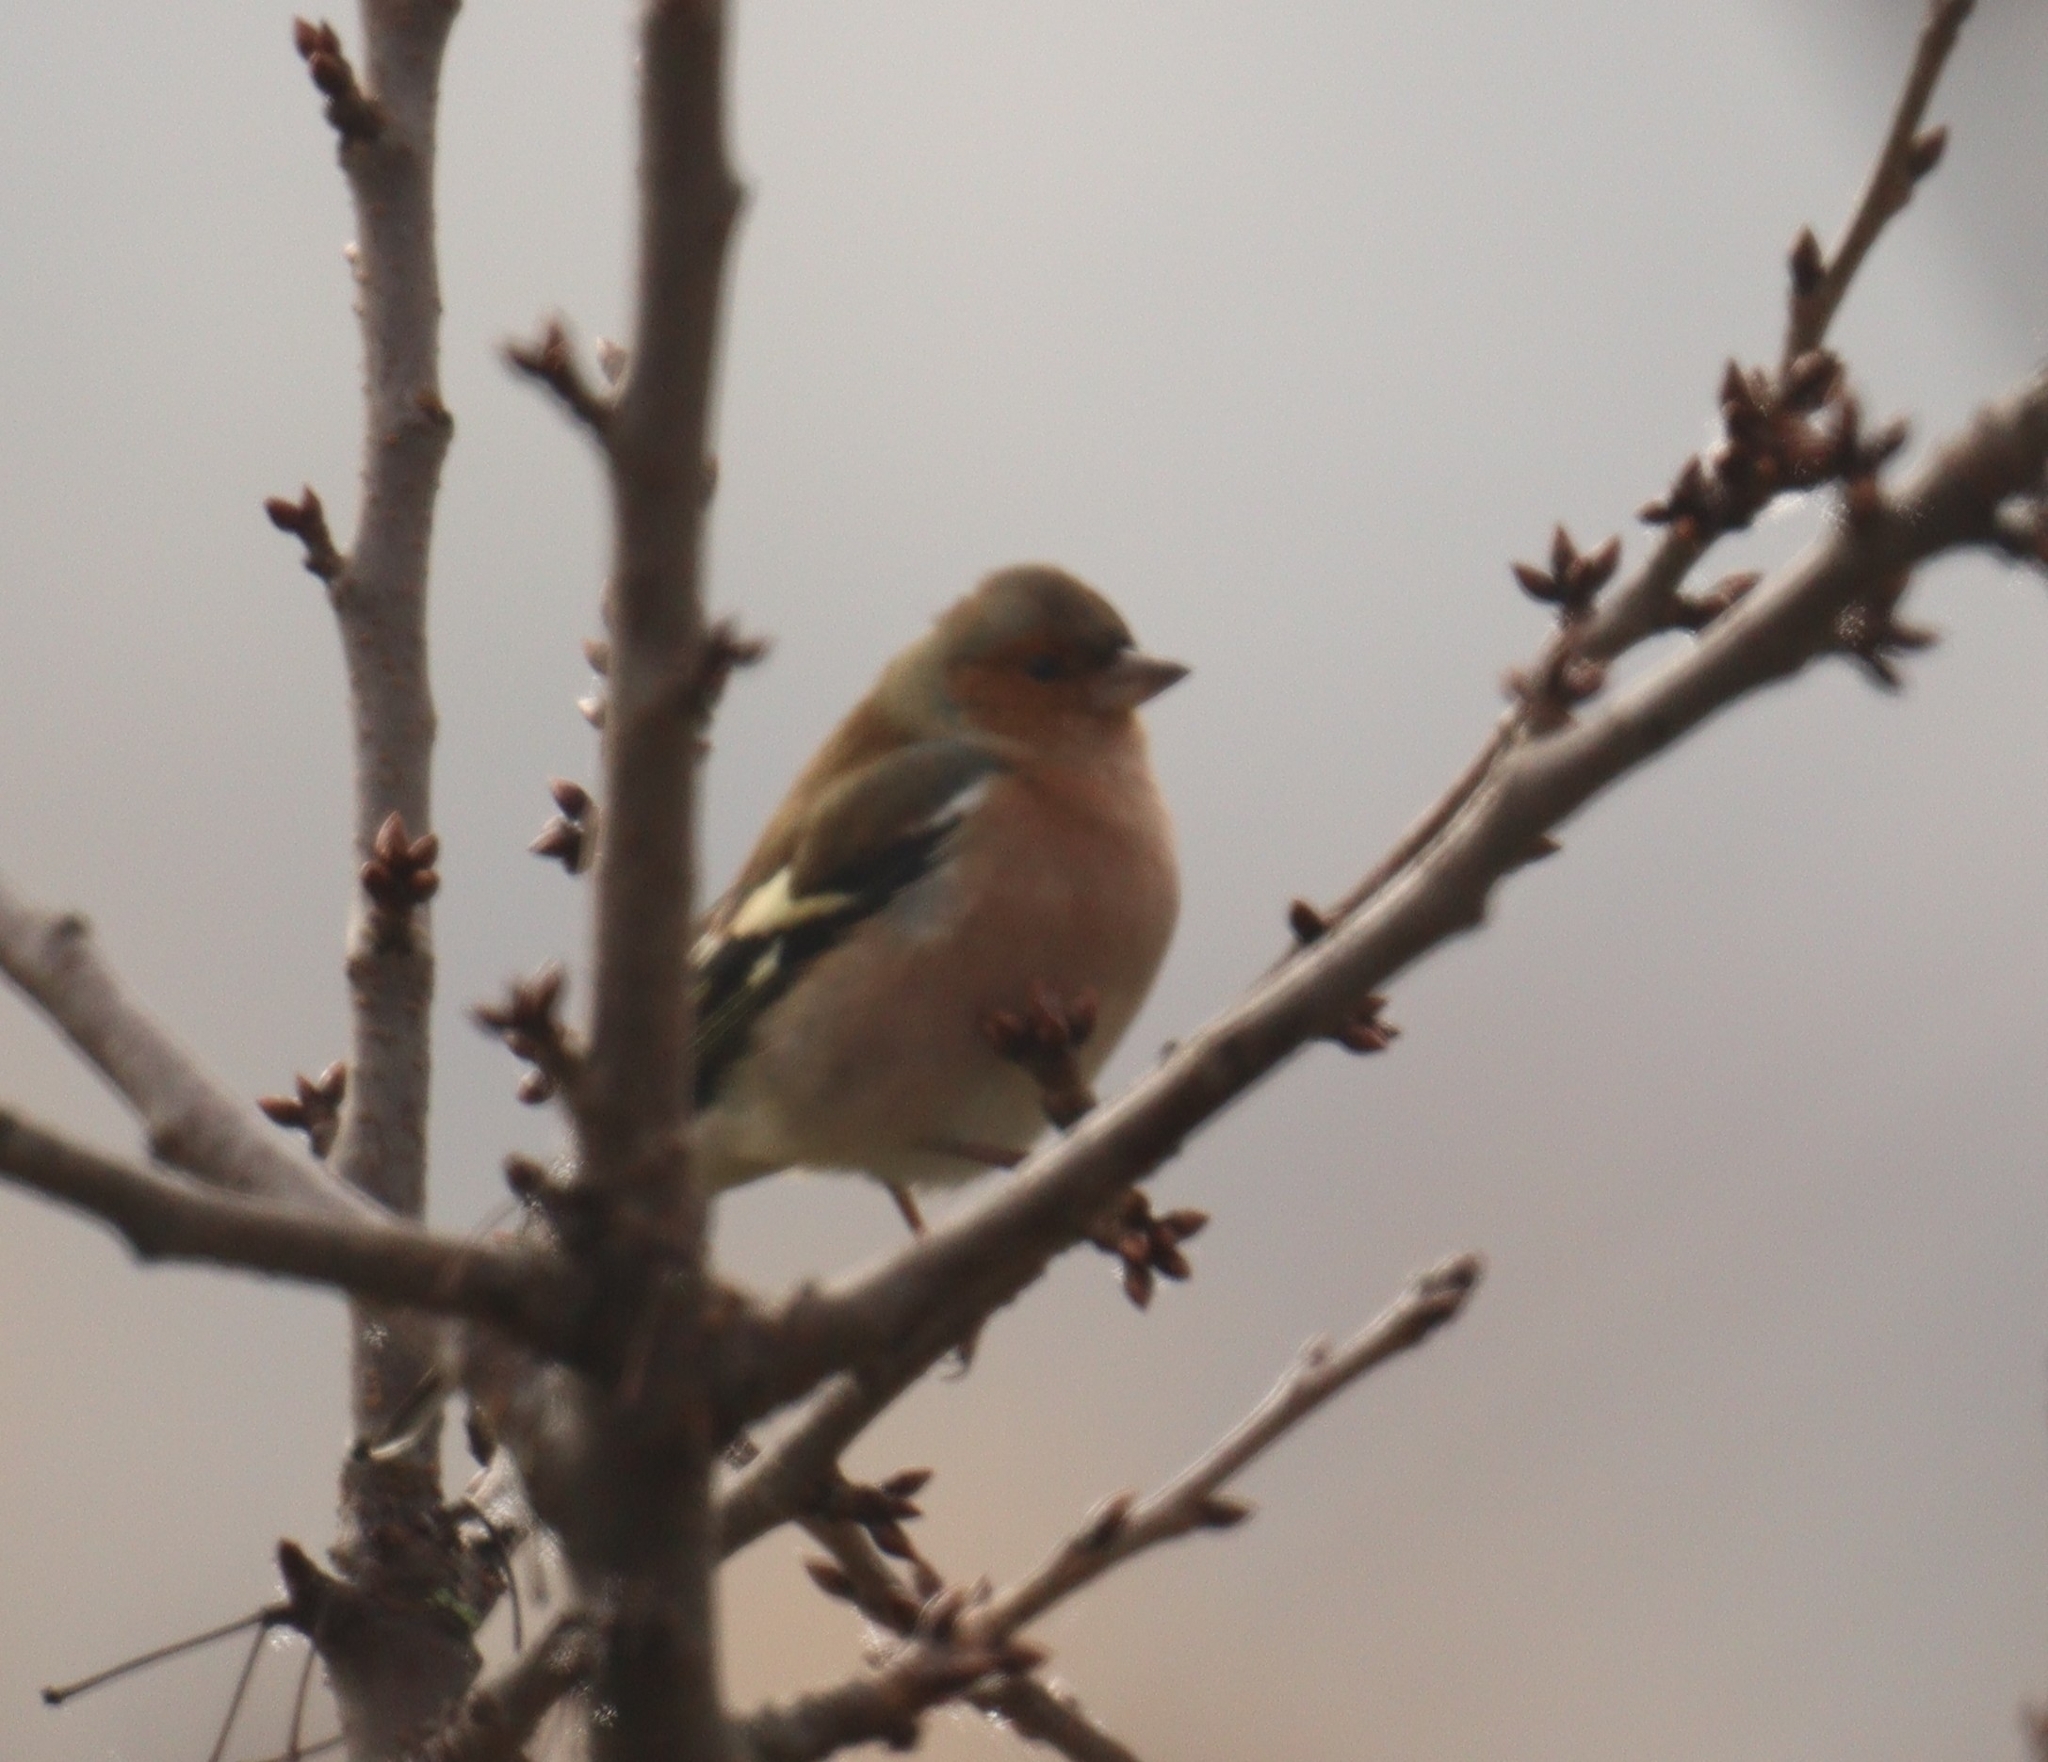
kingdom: Animalia
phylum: Chordata
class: Aves
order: Passeriformes
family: Fringillidae
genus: Fringilla
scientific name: Fringilla coelebs
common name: Common chaffinch
